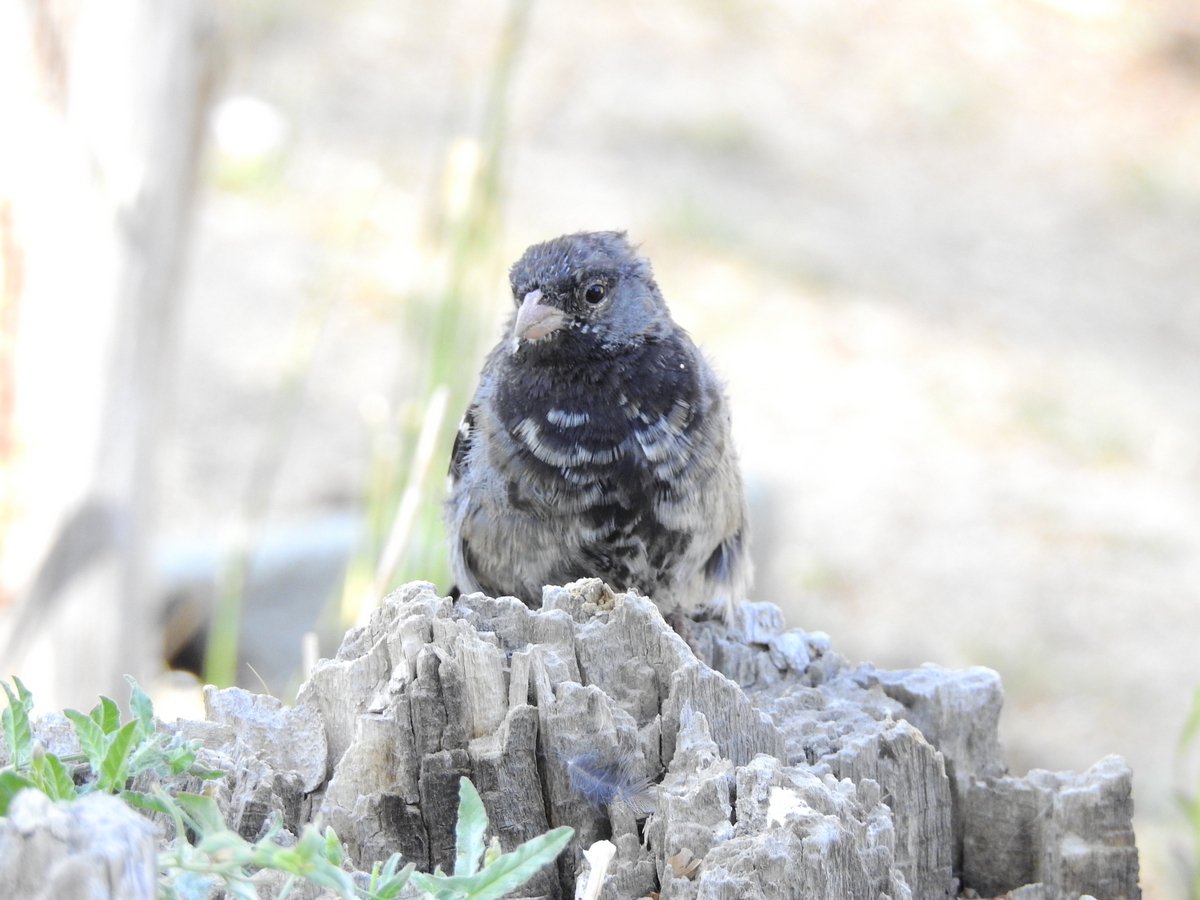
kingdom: Animalia
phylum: Chordata
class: Aves
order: Passeriformes
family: Thraupidae
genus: Rhopospina
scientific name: Rhopospina fruticeti
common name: Mourning sierra finch
